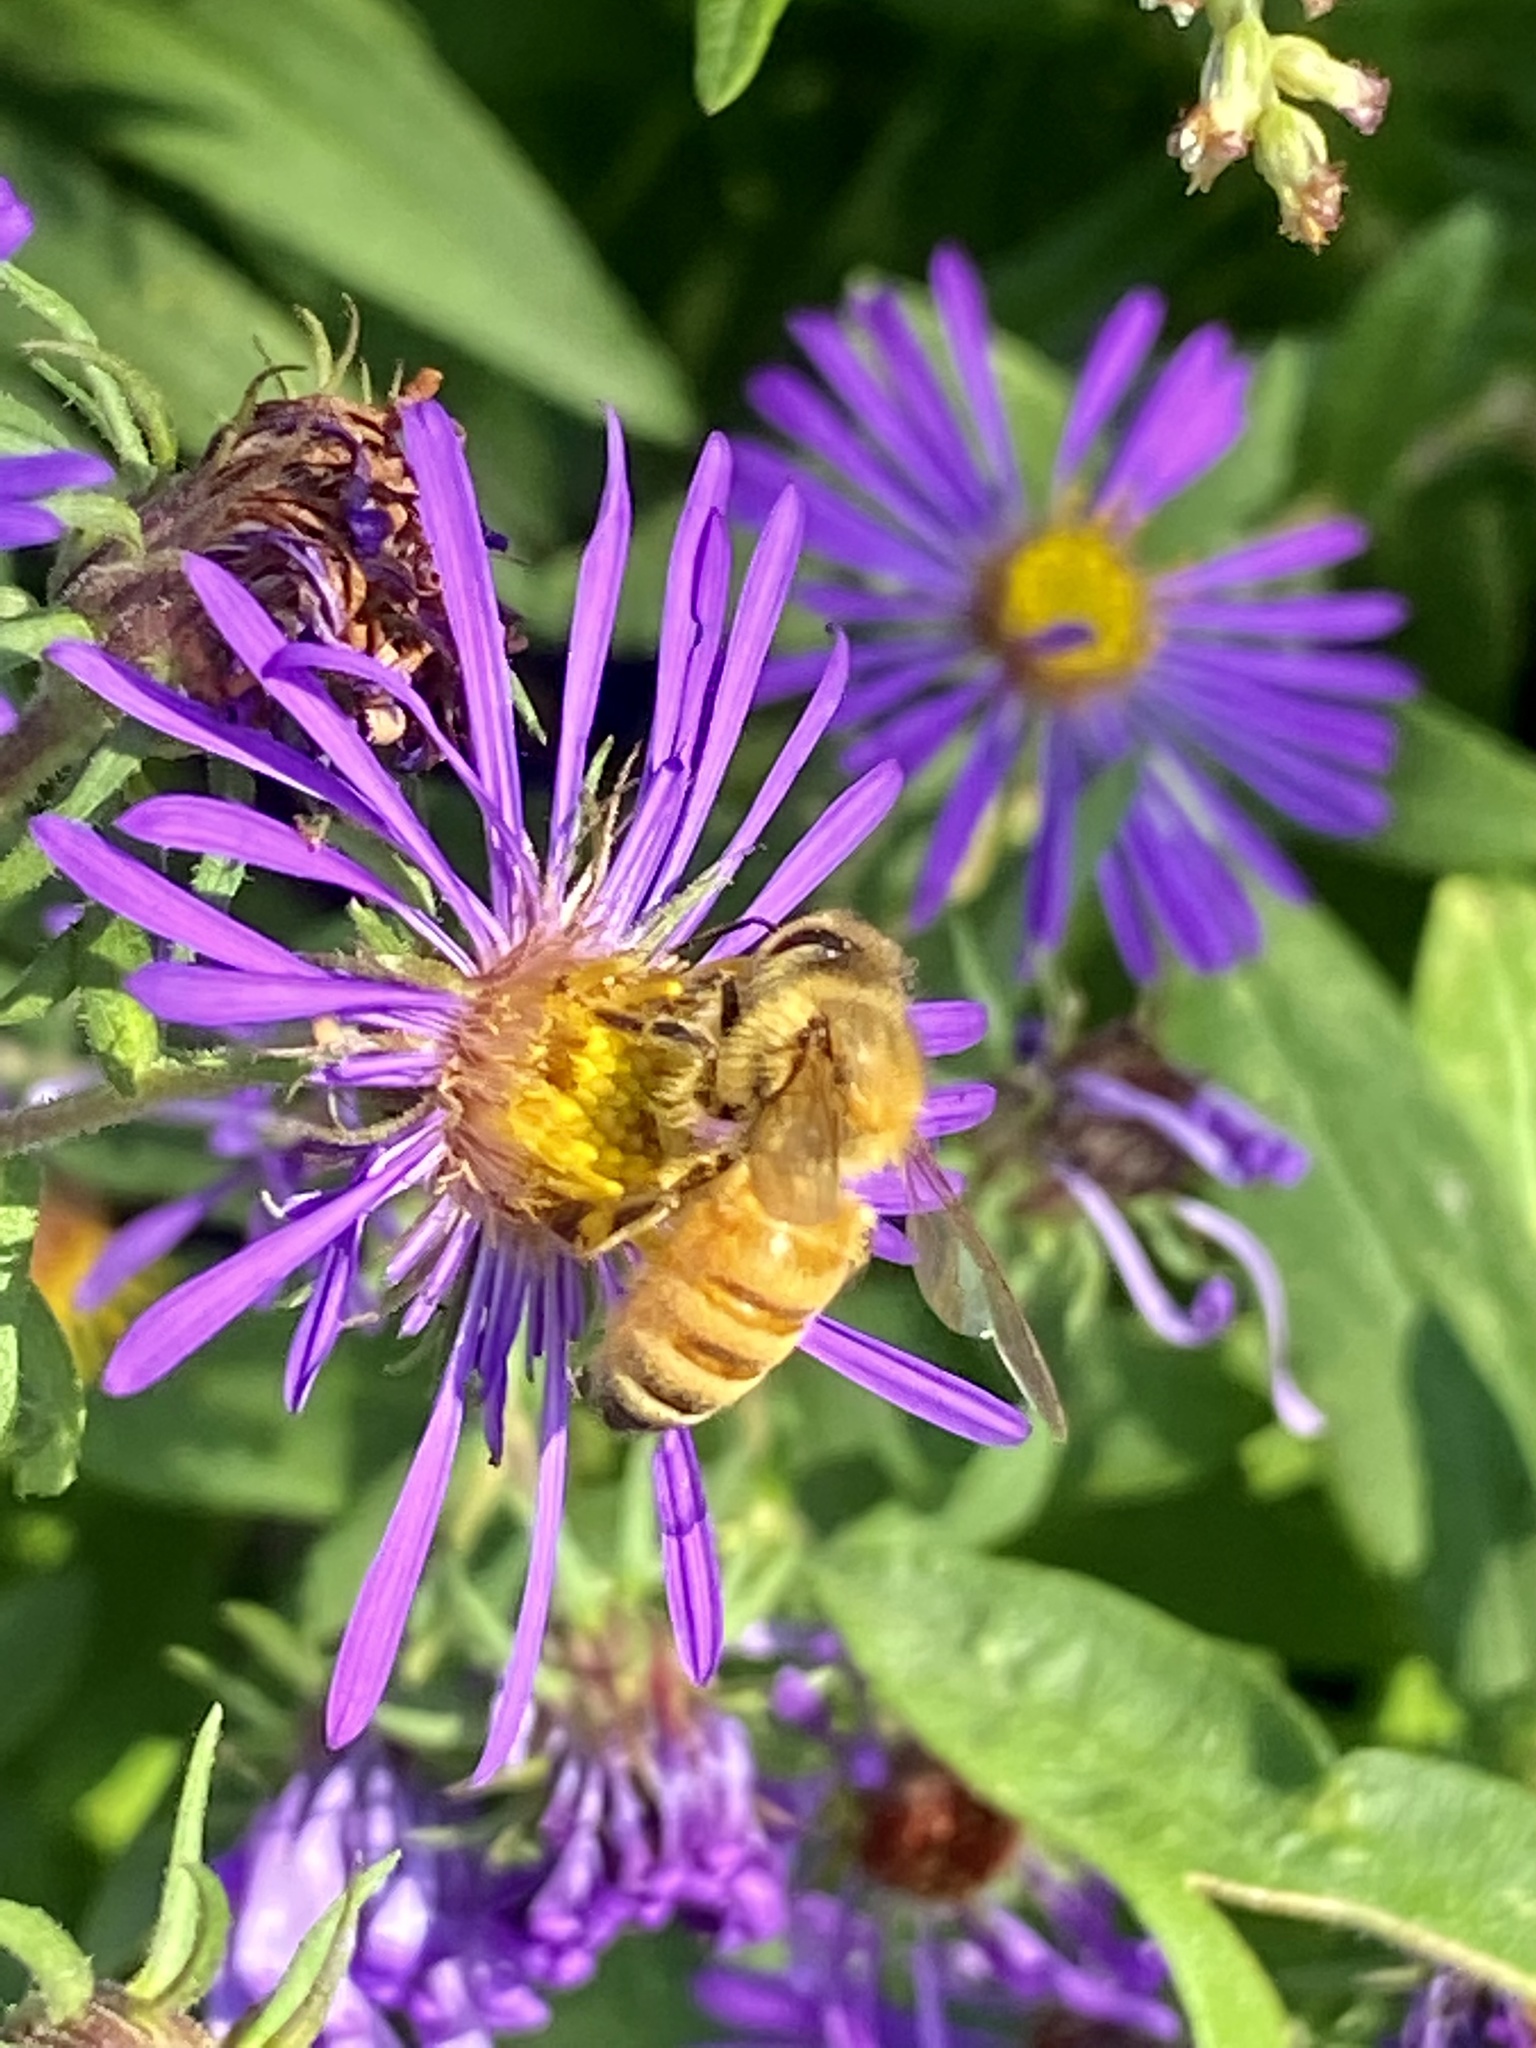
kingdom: Animalia
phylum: Arthropoda
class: Insecta
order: Hymenoptera
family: Apidae
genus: Apis
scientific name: Apis mellifera
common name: Honey bee
